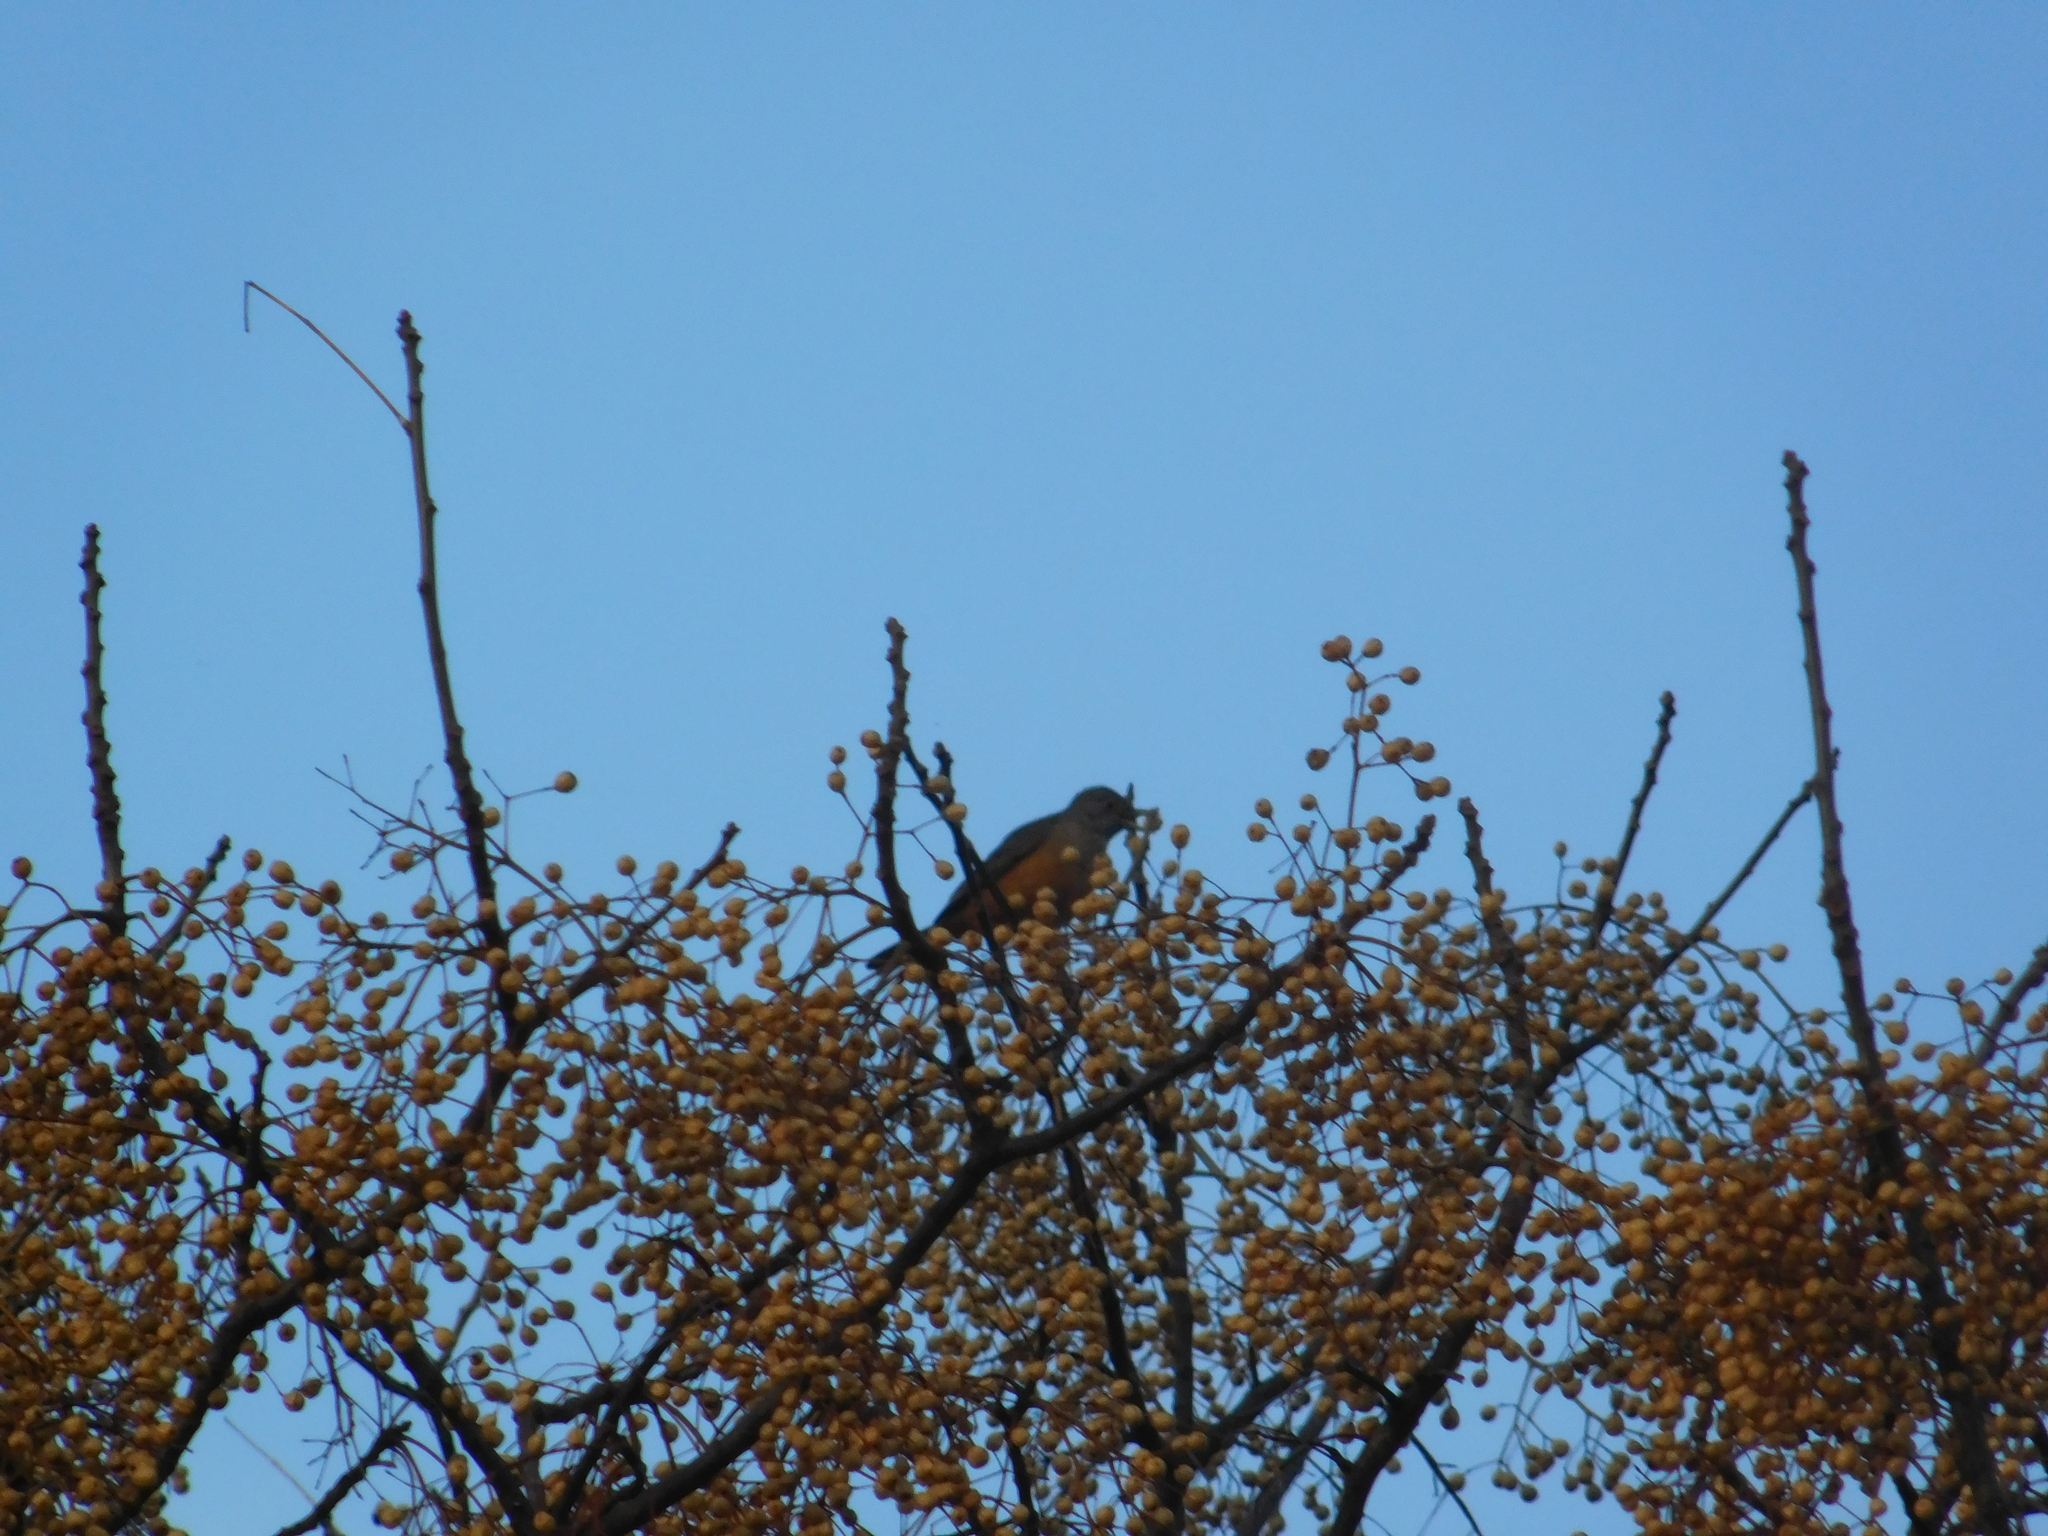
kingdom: Animalia
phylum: Chordata
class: Aves
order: Passeriformes
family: Turdidae
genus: Turdus
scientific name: Turdus rufiventris
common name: Rufous-bellied thrush
